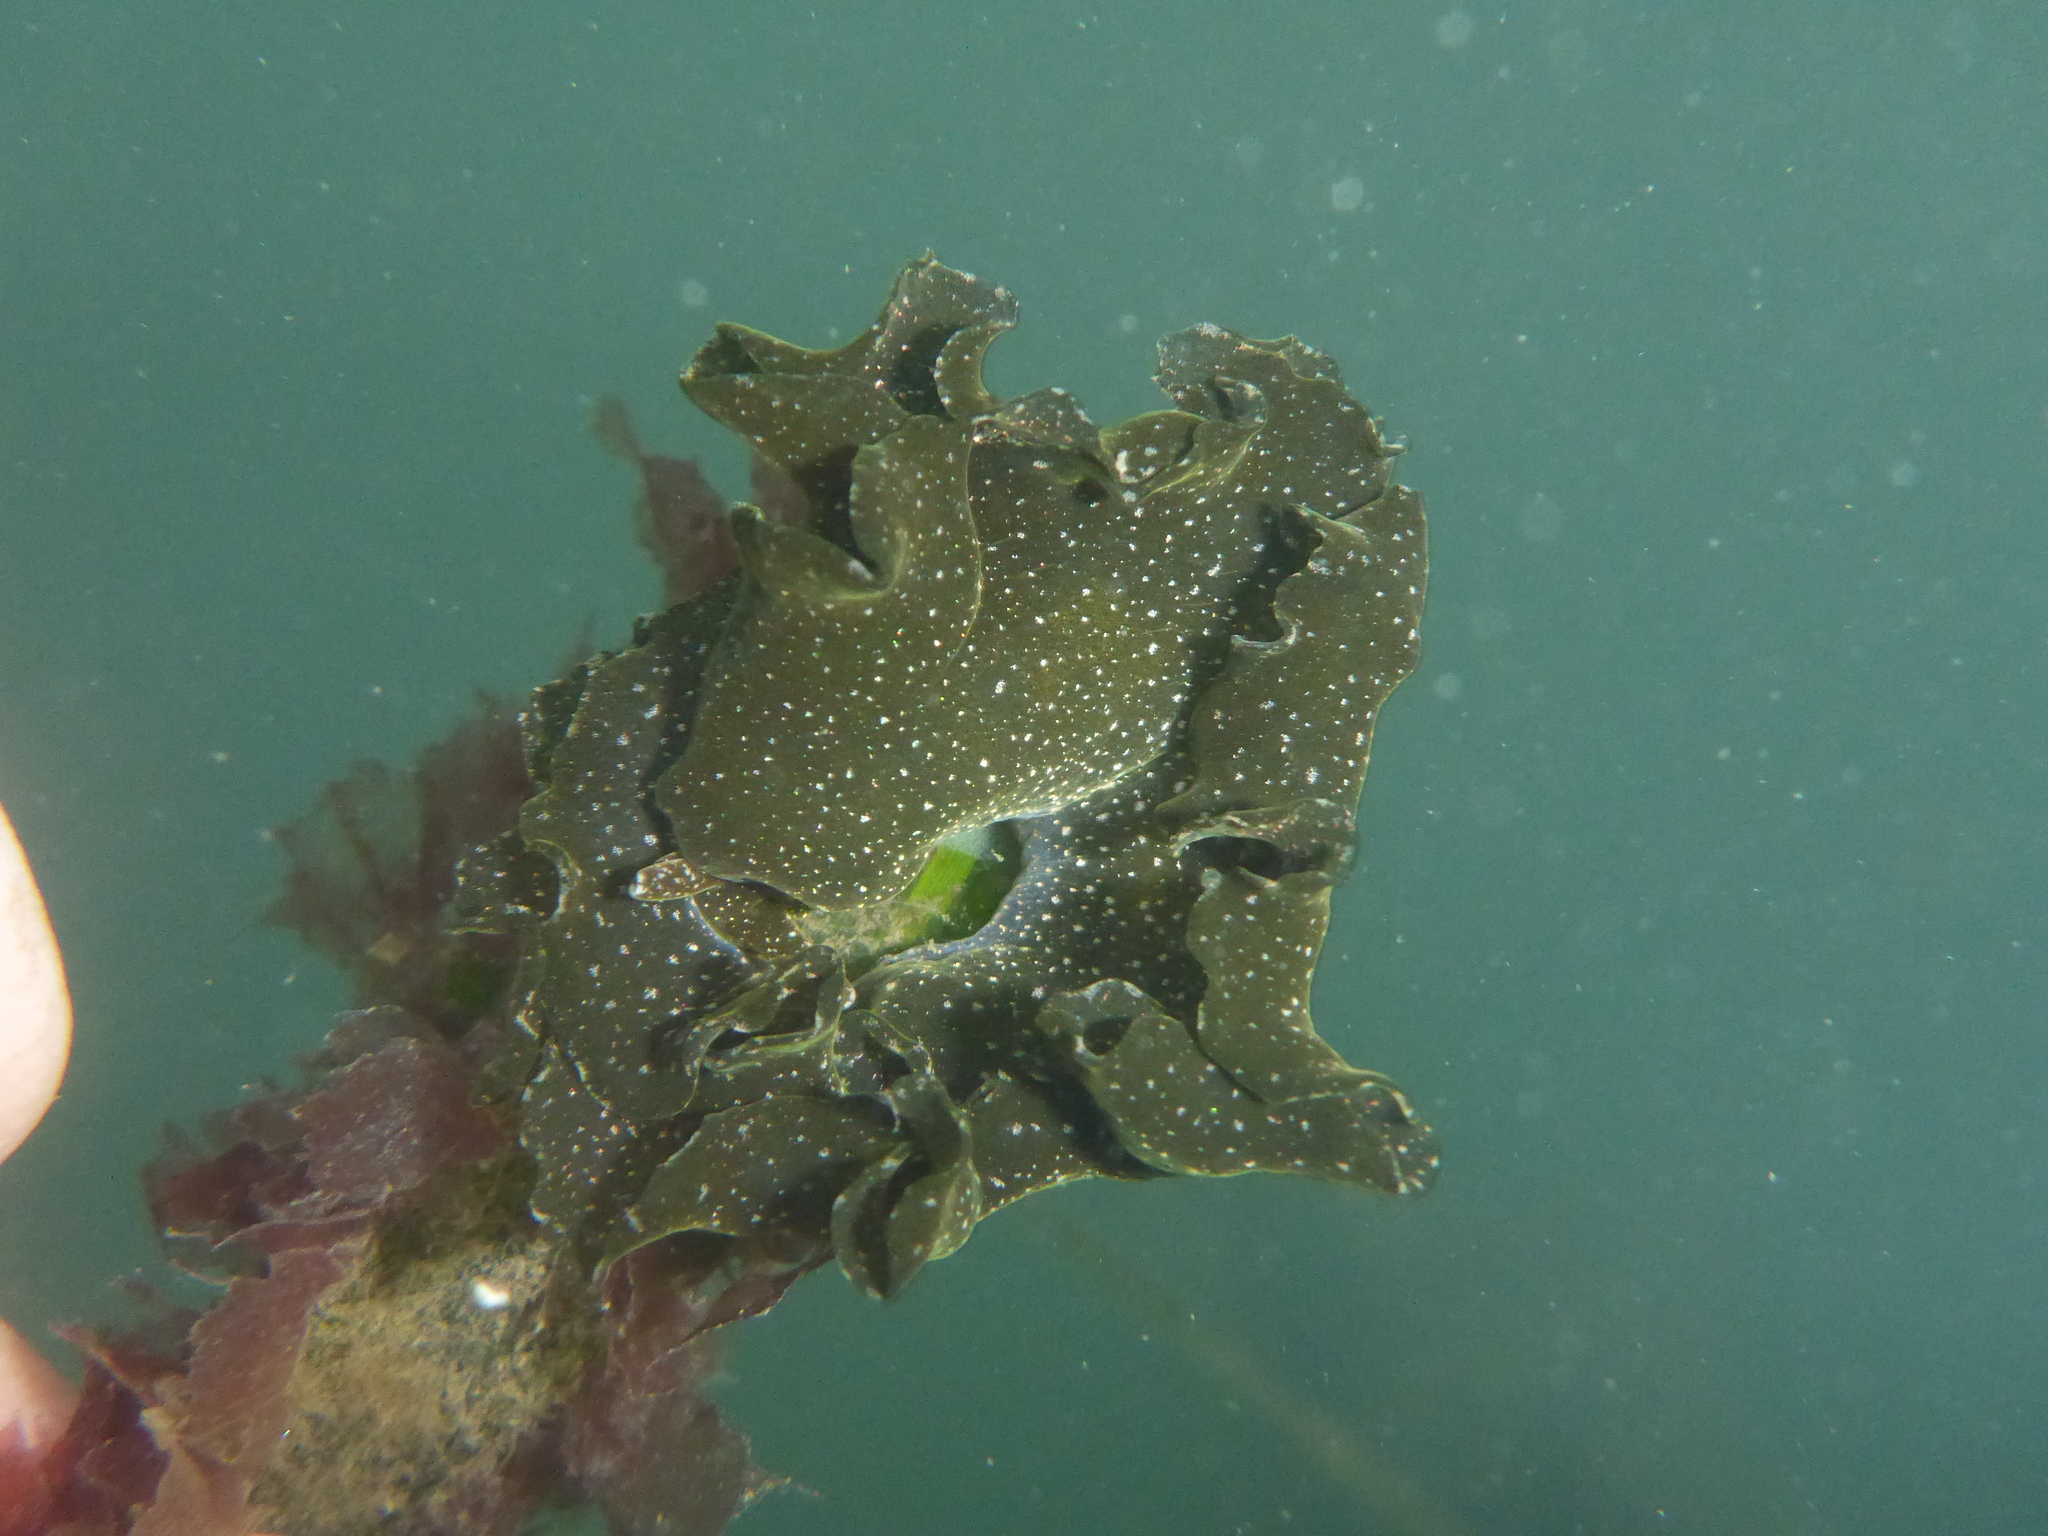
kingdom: Animalia
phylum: Mollusca
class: Gastropoda
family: Plakobranchidae
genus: Elysia
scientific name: Elysia hedgpethi
